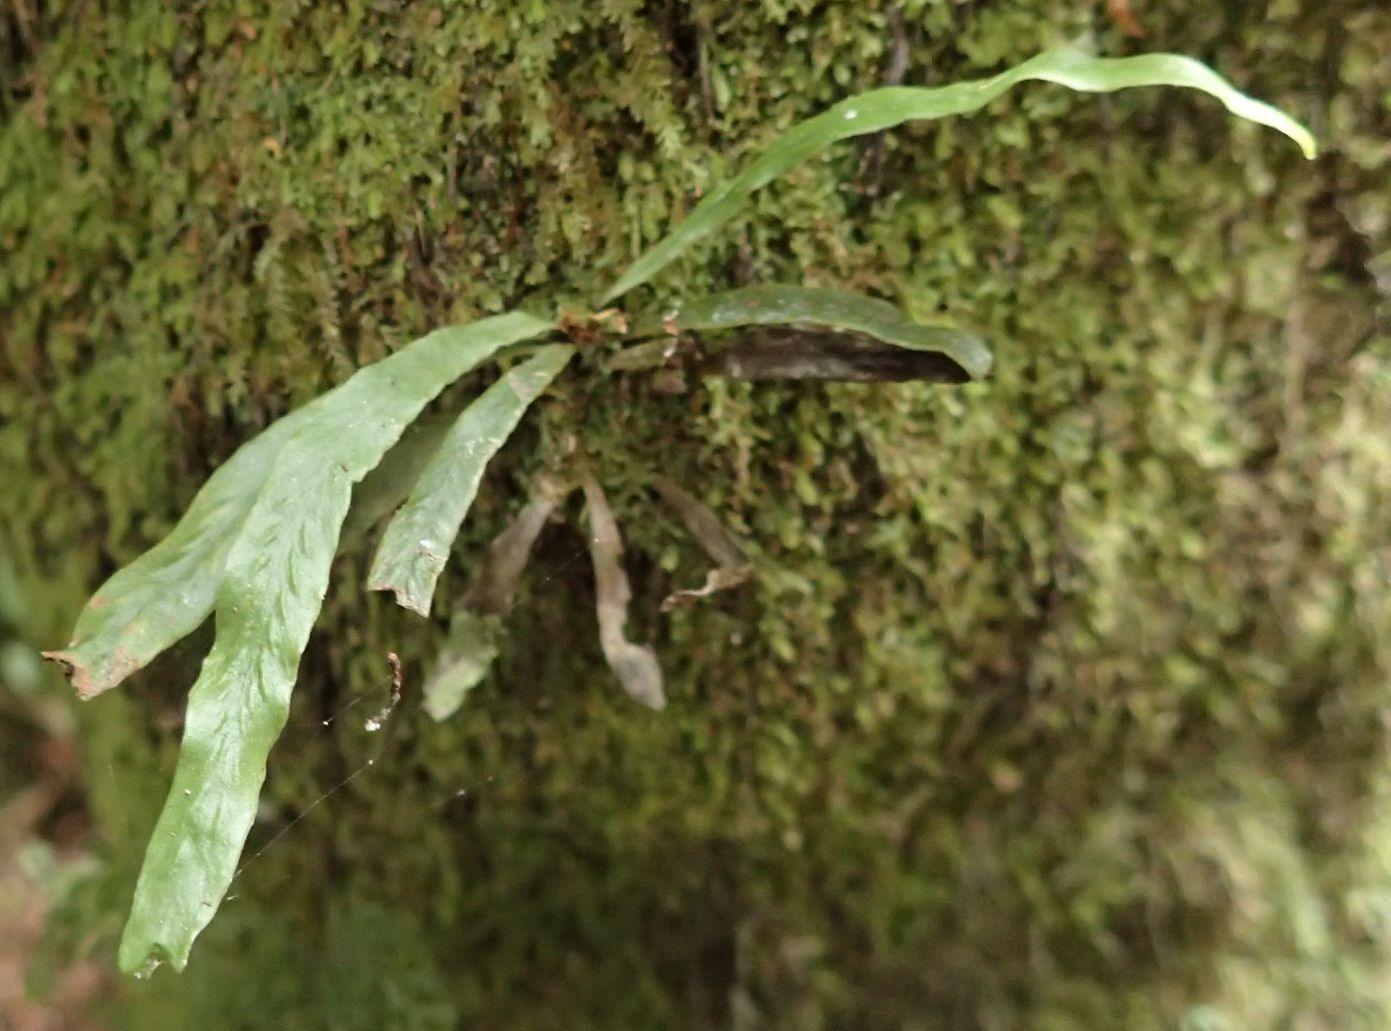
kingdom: Plantae
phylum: Tracheophyta
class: Polypodiopsida
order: Polypodiales
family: Polypodiaceae
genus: Notogrammitis
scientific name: Notogrammitis billardierei
